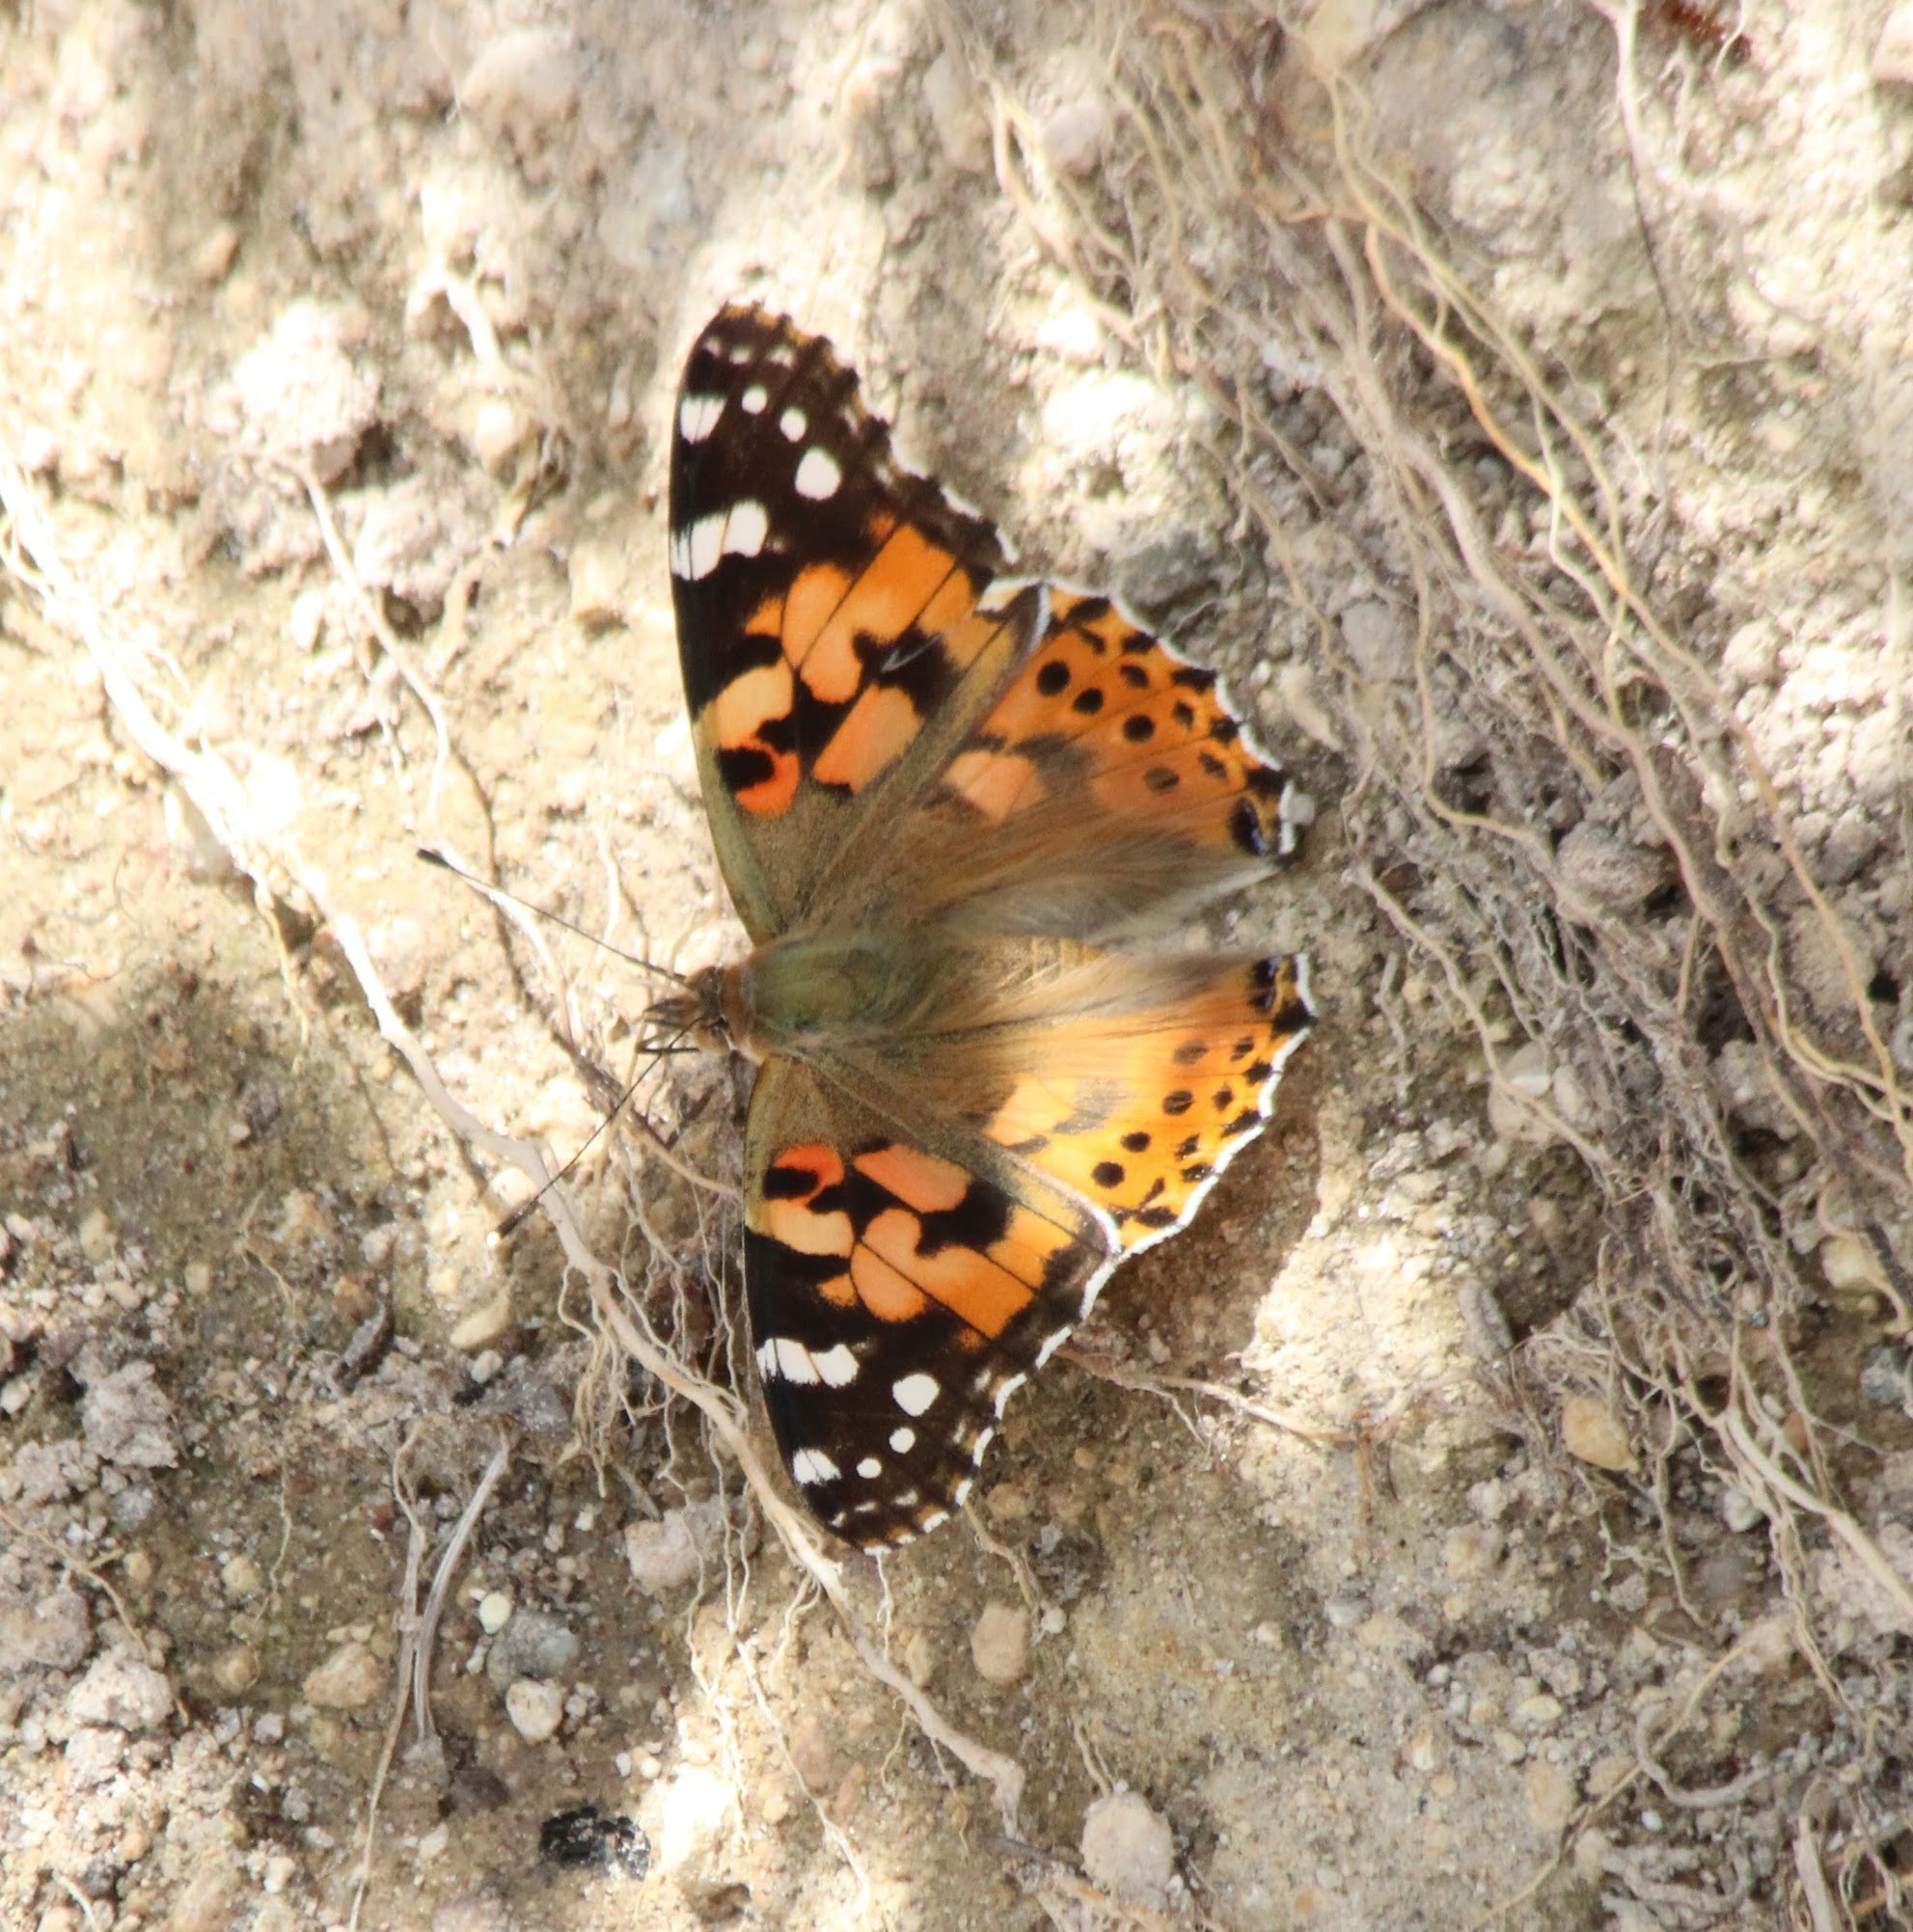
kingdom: Animalia
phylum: Arthropoda
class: Insecta
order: Lepidoptera
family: Nymphalidae
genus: Vanessa
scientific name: Vanessa cardui
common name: Painted lady
